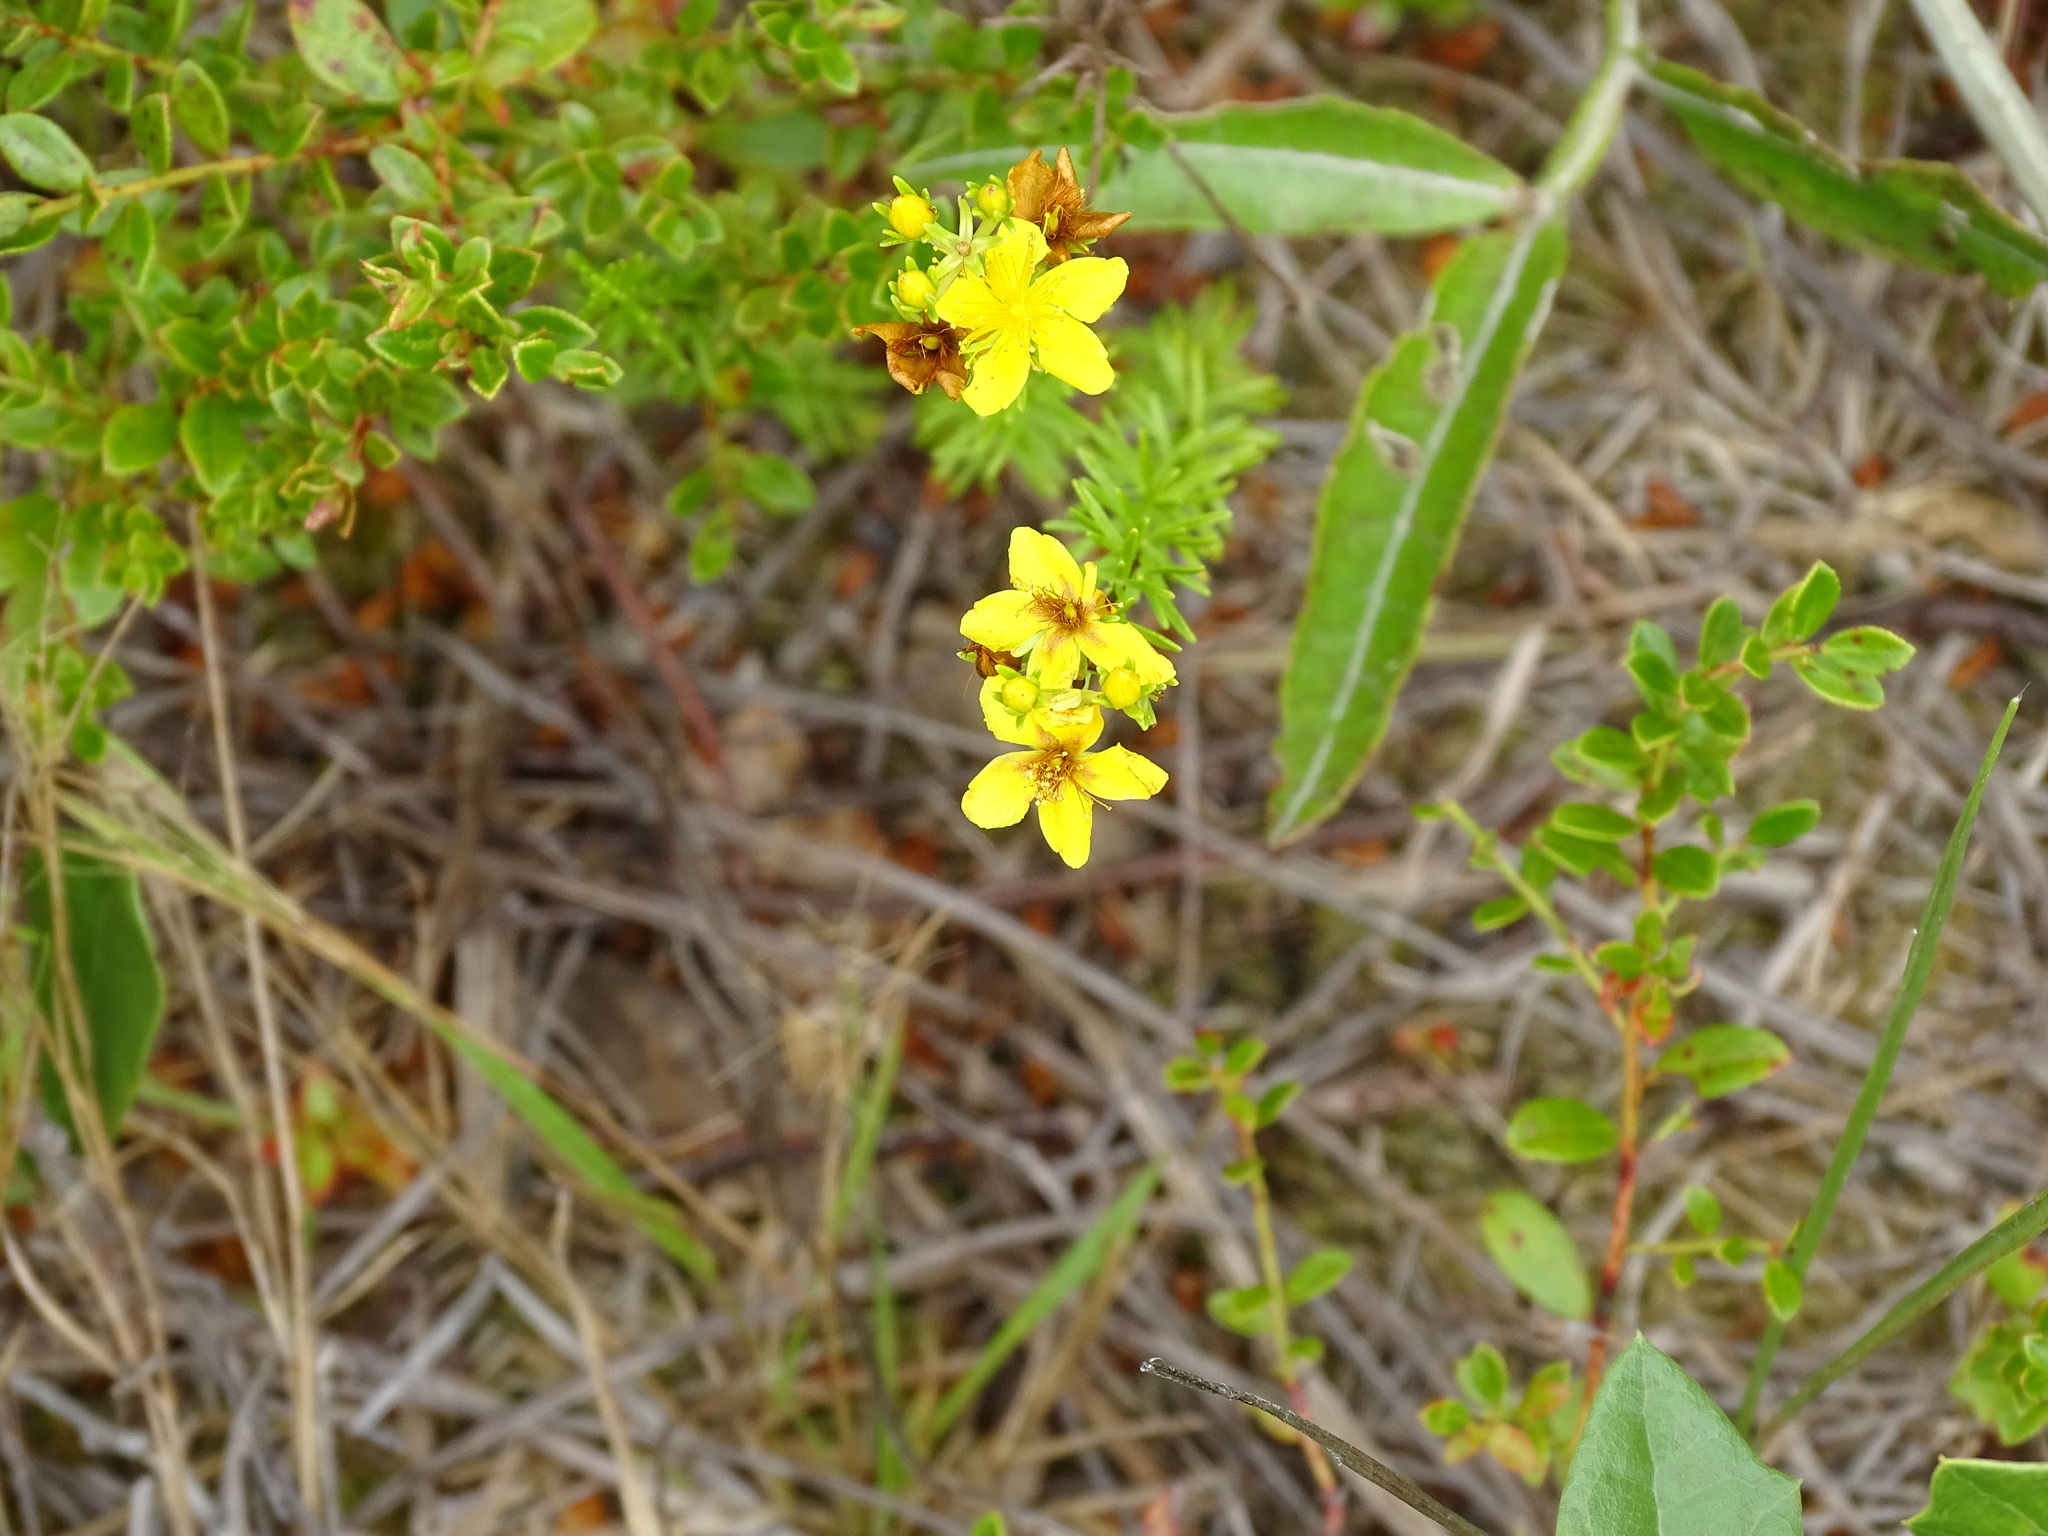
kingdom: Plantae
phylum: Tracheophyta
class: Magnoliopsida
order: Malpighiales
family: Hypericaceae
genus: Hypericum
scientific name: Hypericum tenuifolium
